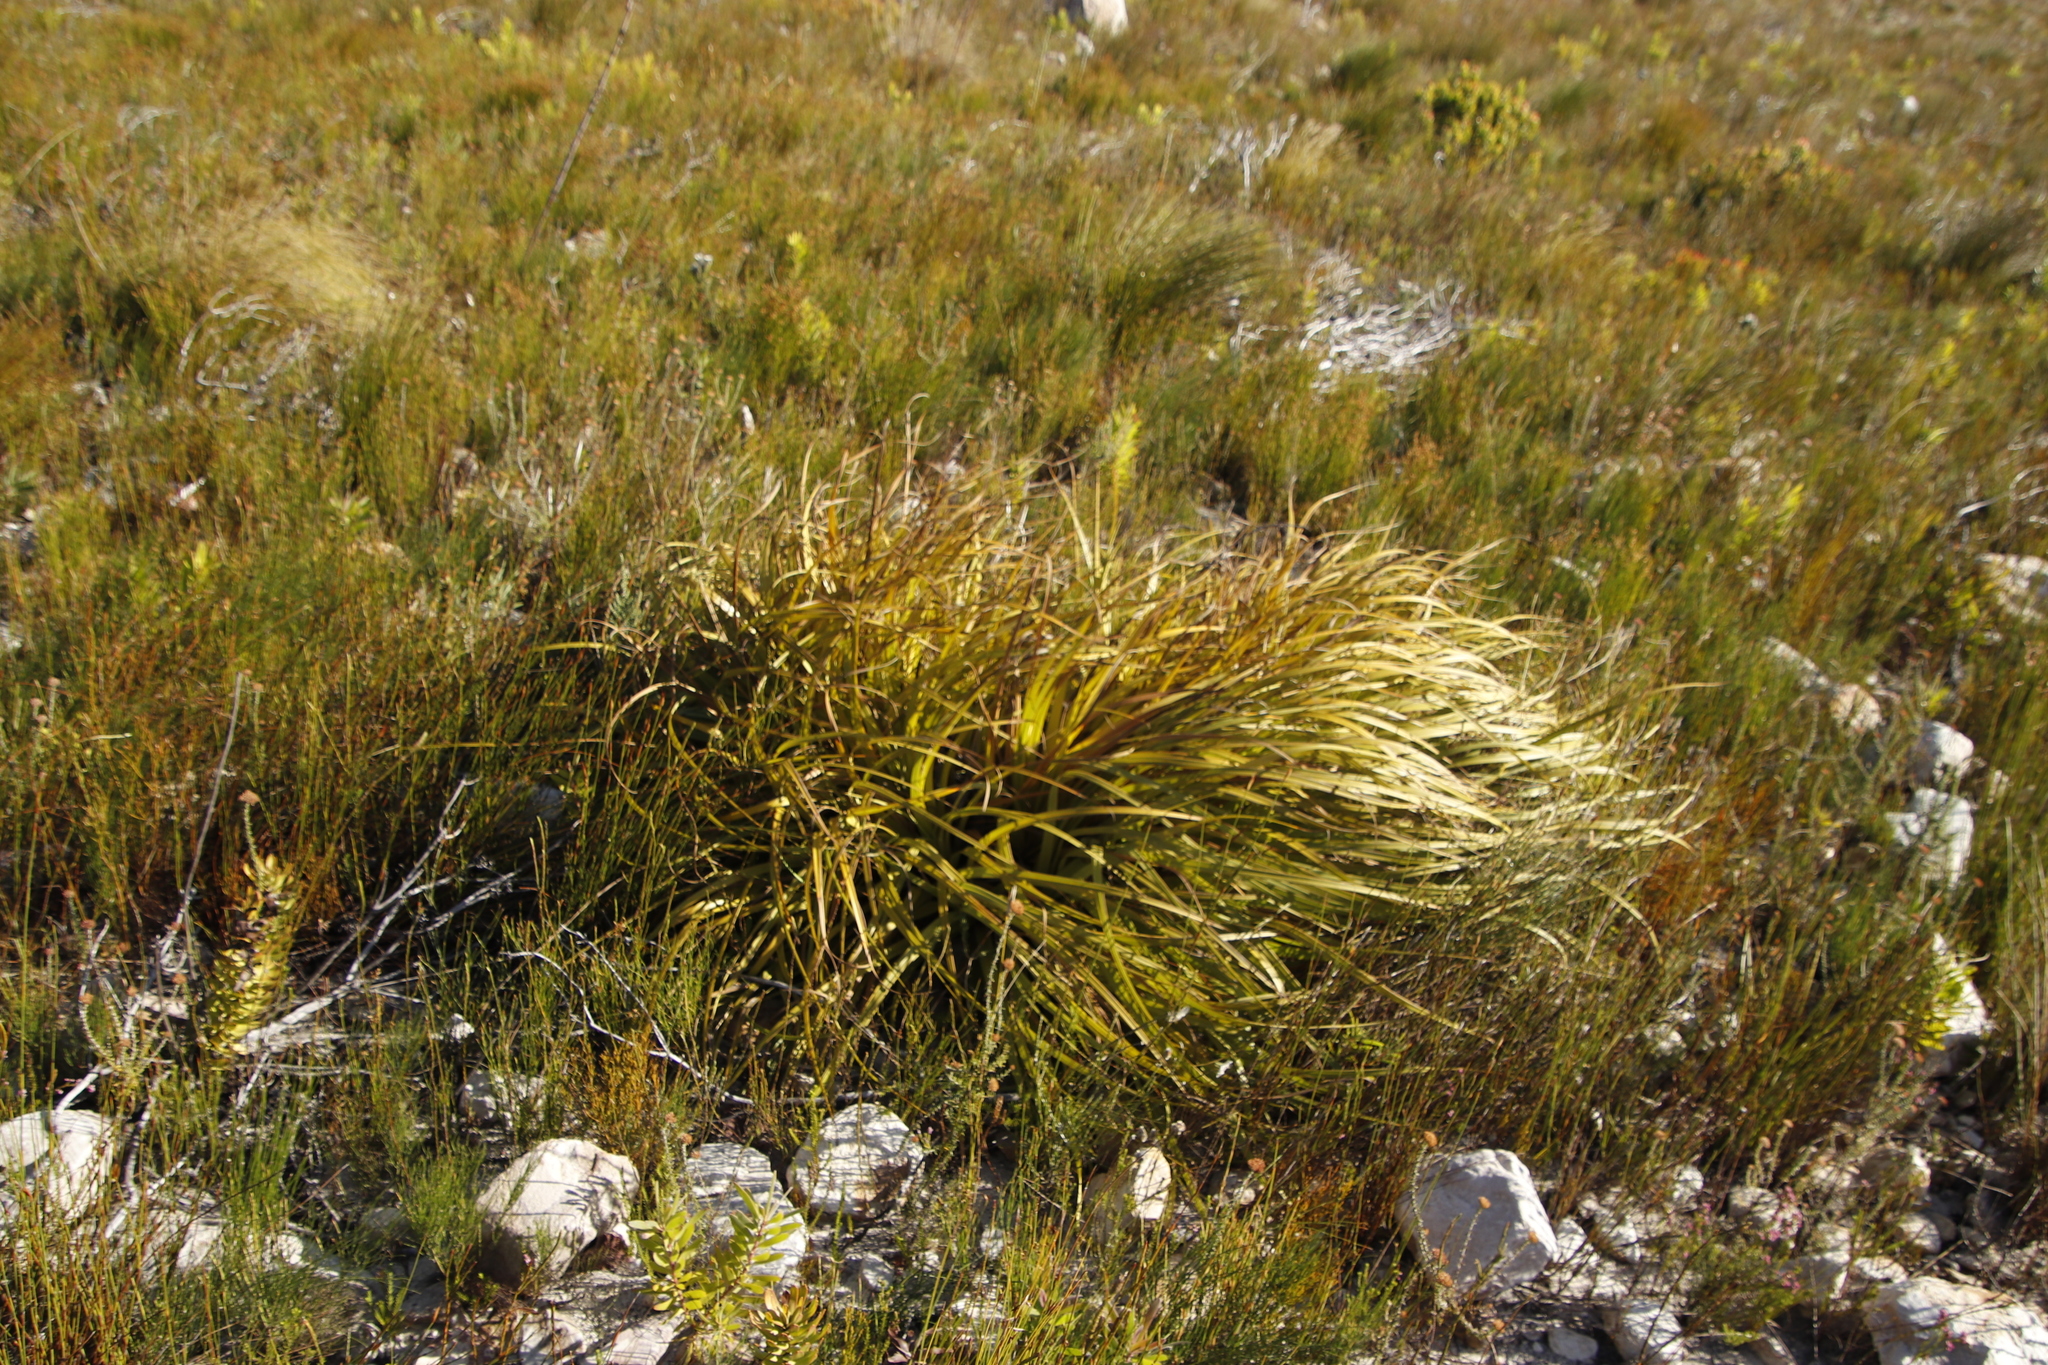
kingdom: Plantae
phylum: Tracheophyta
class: Liliopsida
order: Poales
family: Cyperaceae
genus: Tetraria
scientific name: Tetraria thermalis
